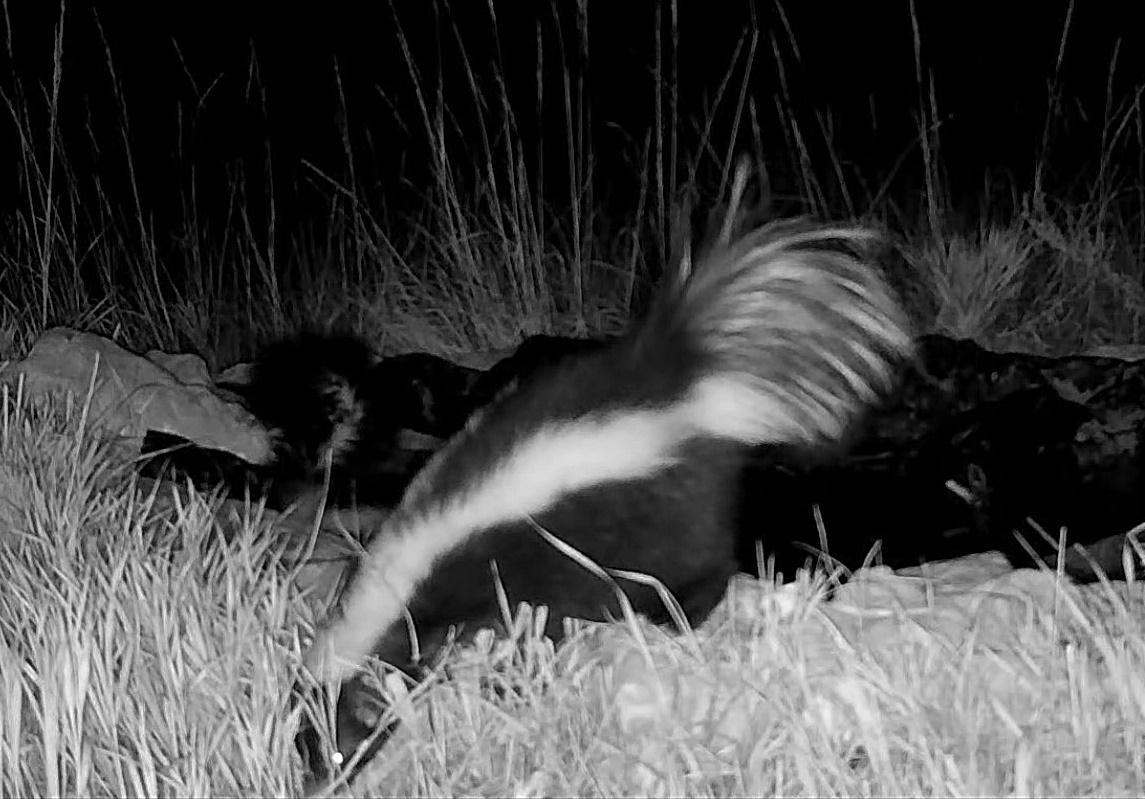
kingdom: Animalia
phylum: Chordata
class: Mammalia
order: Carnivora
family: Mephitidae
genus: Mephitis
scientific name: Mephitis mephitis
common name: Striped skunk
